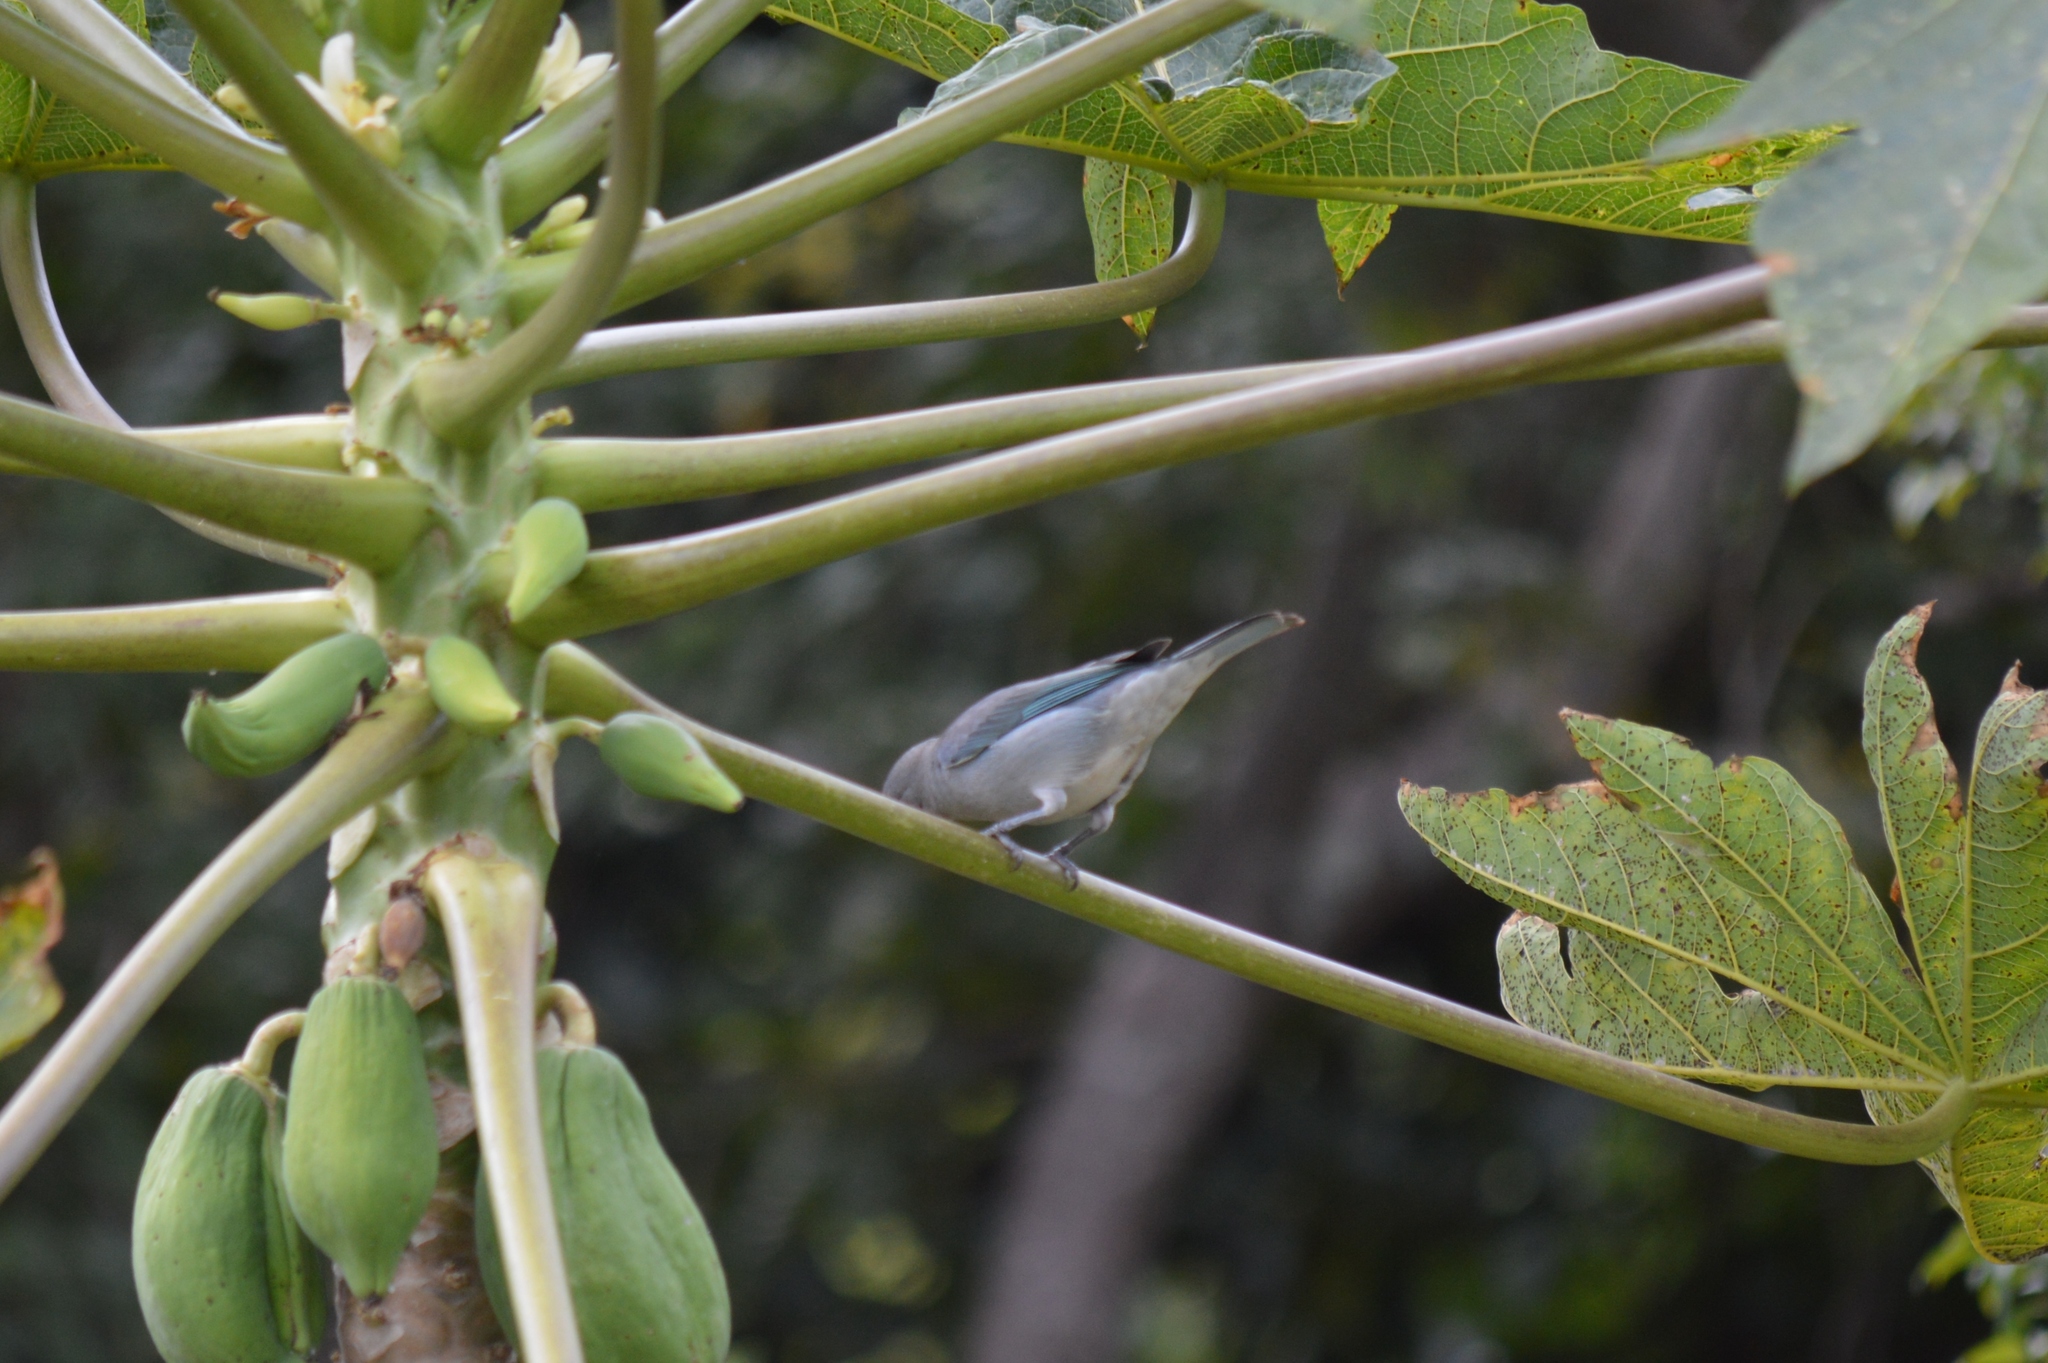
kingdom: Animalia
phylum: Chordata
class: Aves
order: Passeriformes
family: Thraupidae
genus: Thraupis
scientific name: Thraupis sayaca
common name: Sayaca tanager
